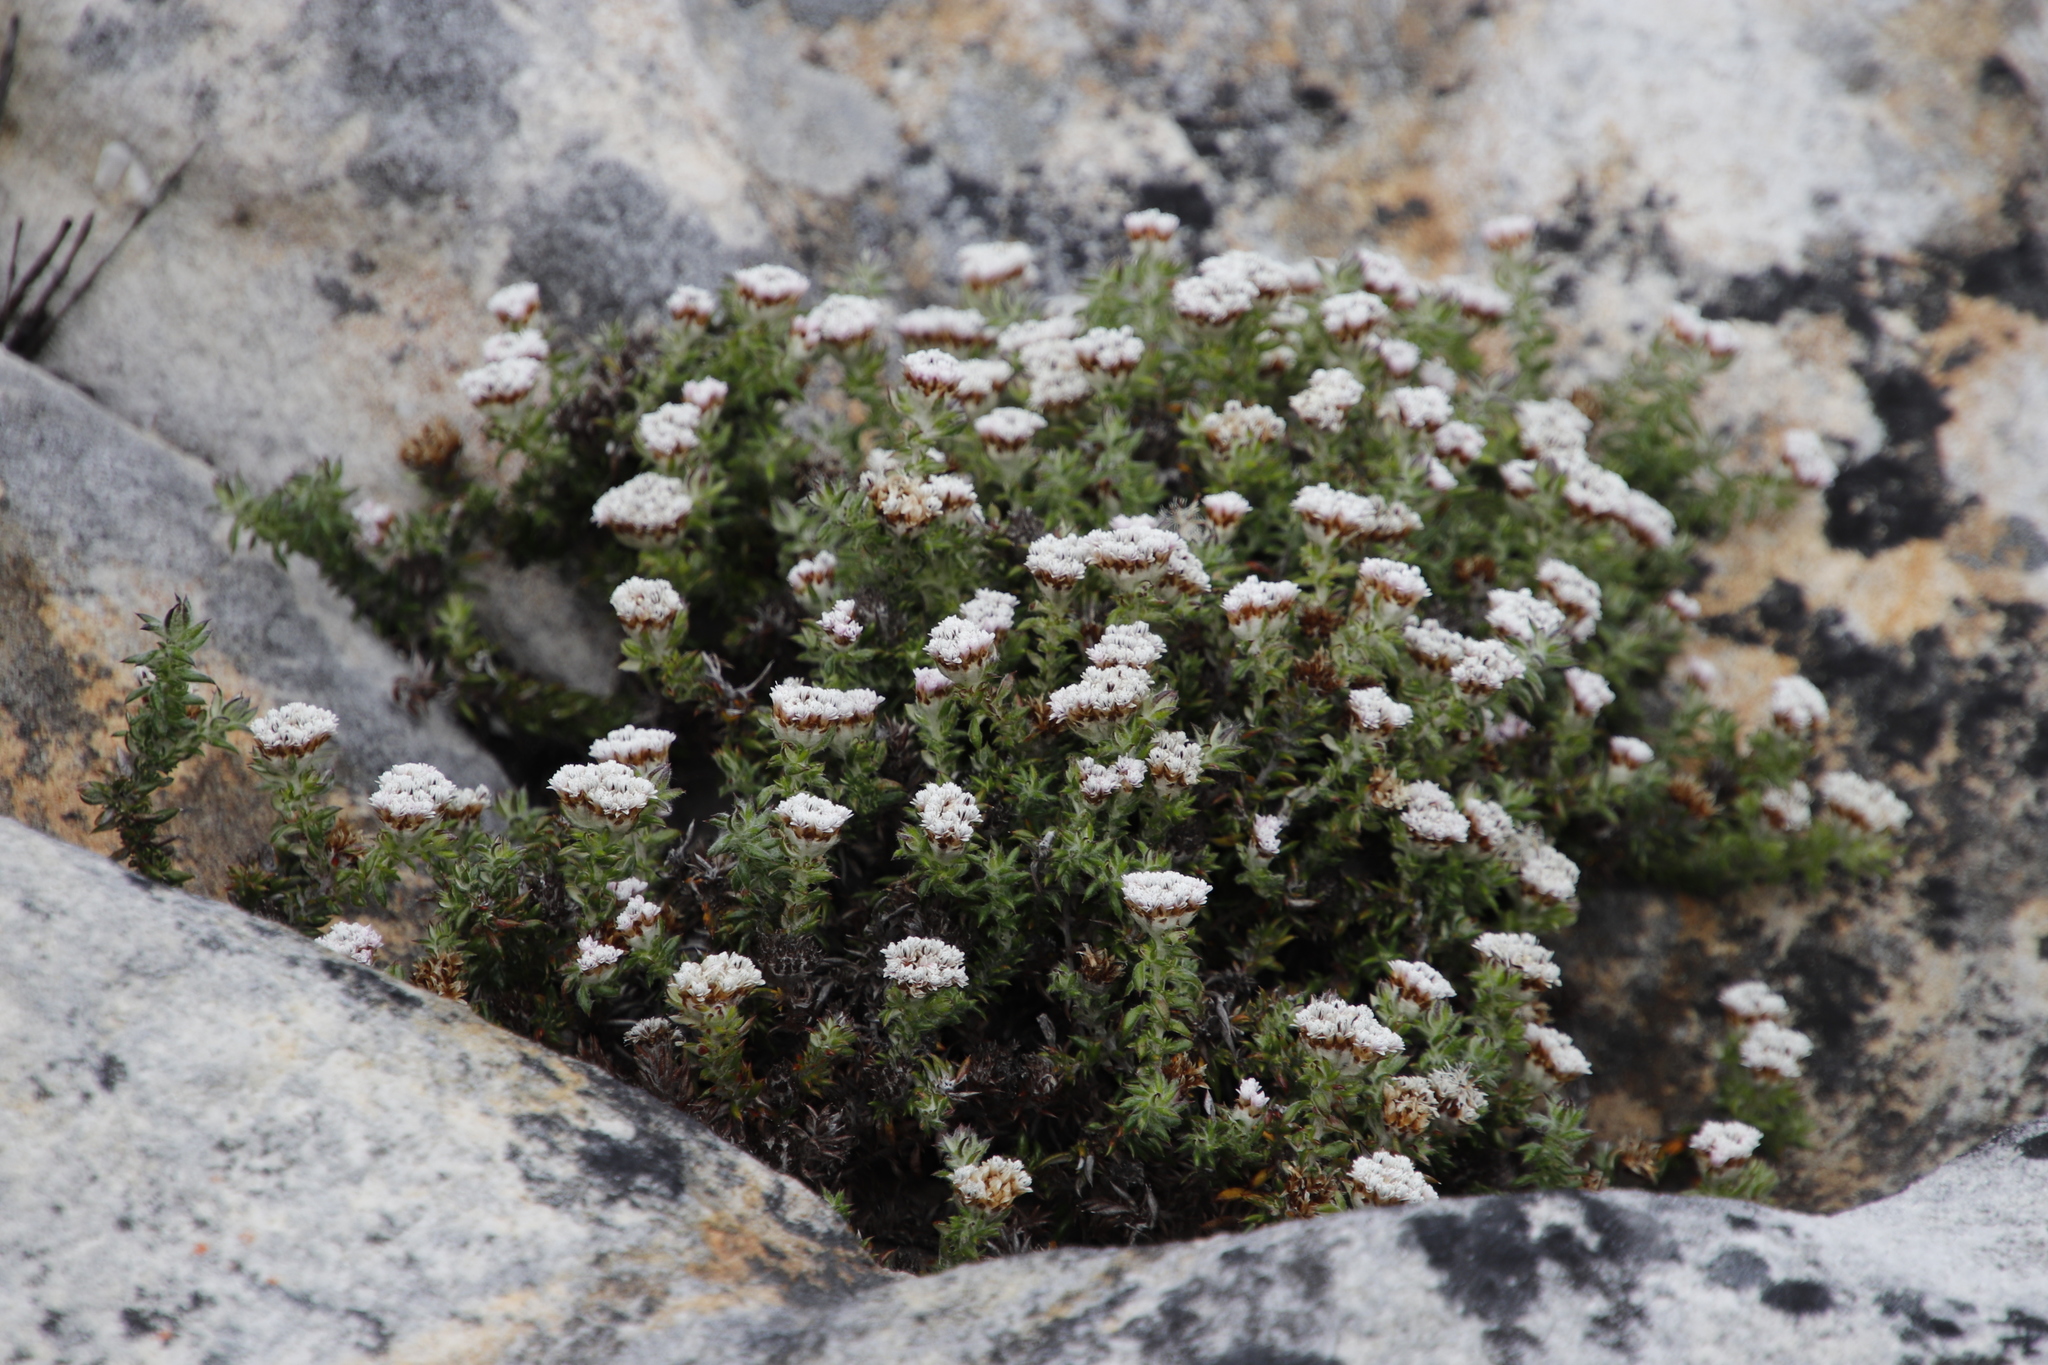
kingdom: Plantae
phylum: Tracheophyta
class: Magnoliopsida
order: Asterales
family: Asteraceae
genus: Metalasia
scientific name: Metalasia divergens
